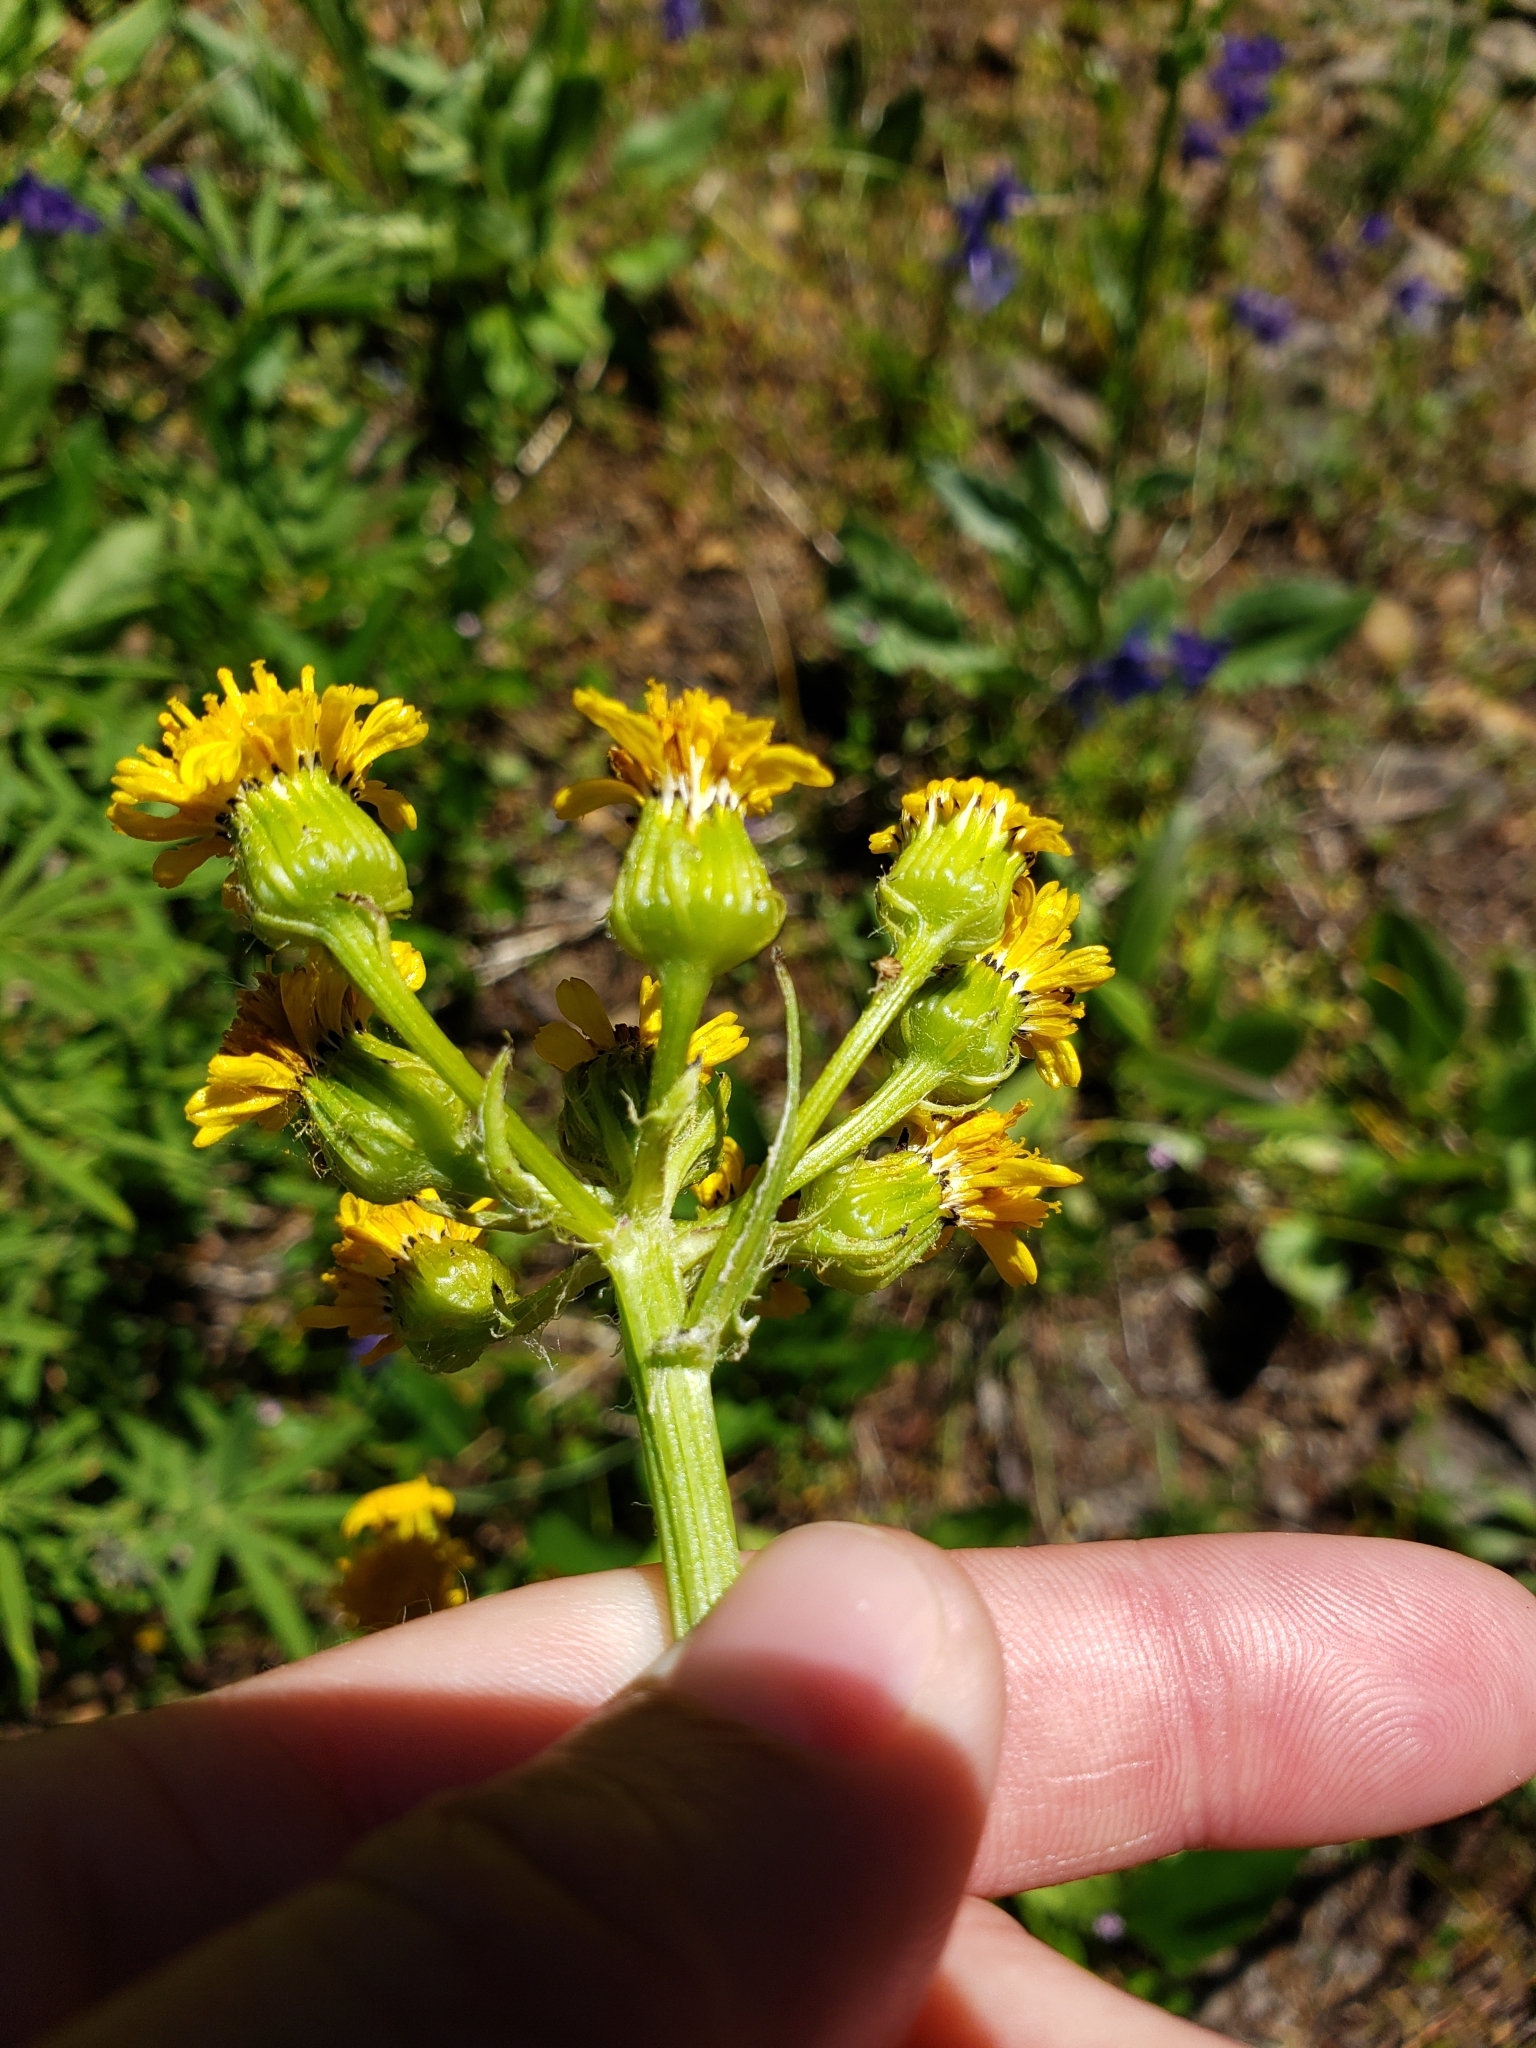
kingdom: Plantae
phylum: Tracheophyta
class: Magnoliopsida
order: Asterales
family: Asteraceae
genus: Senecio
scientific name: Senecio integerrimus
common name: Gaugeplant
